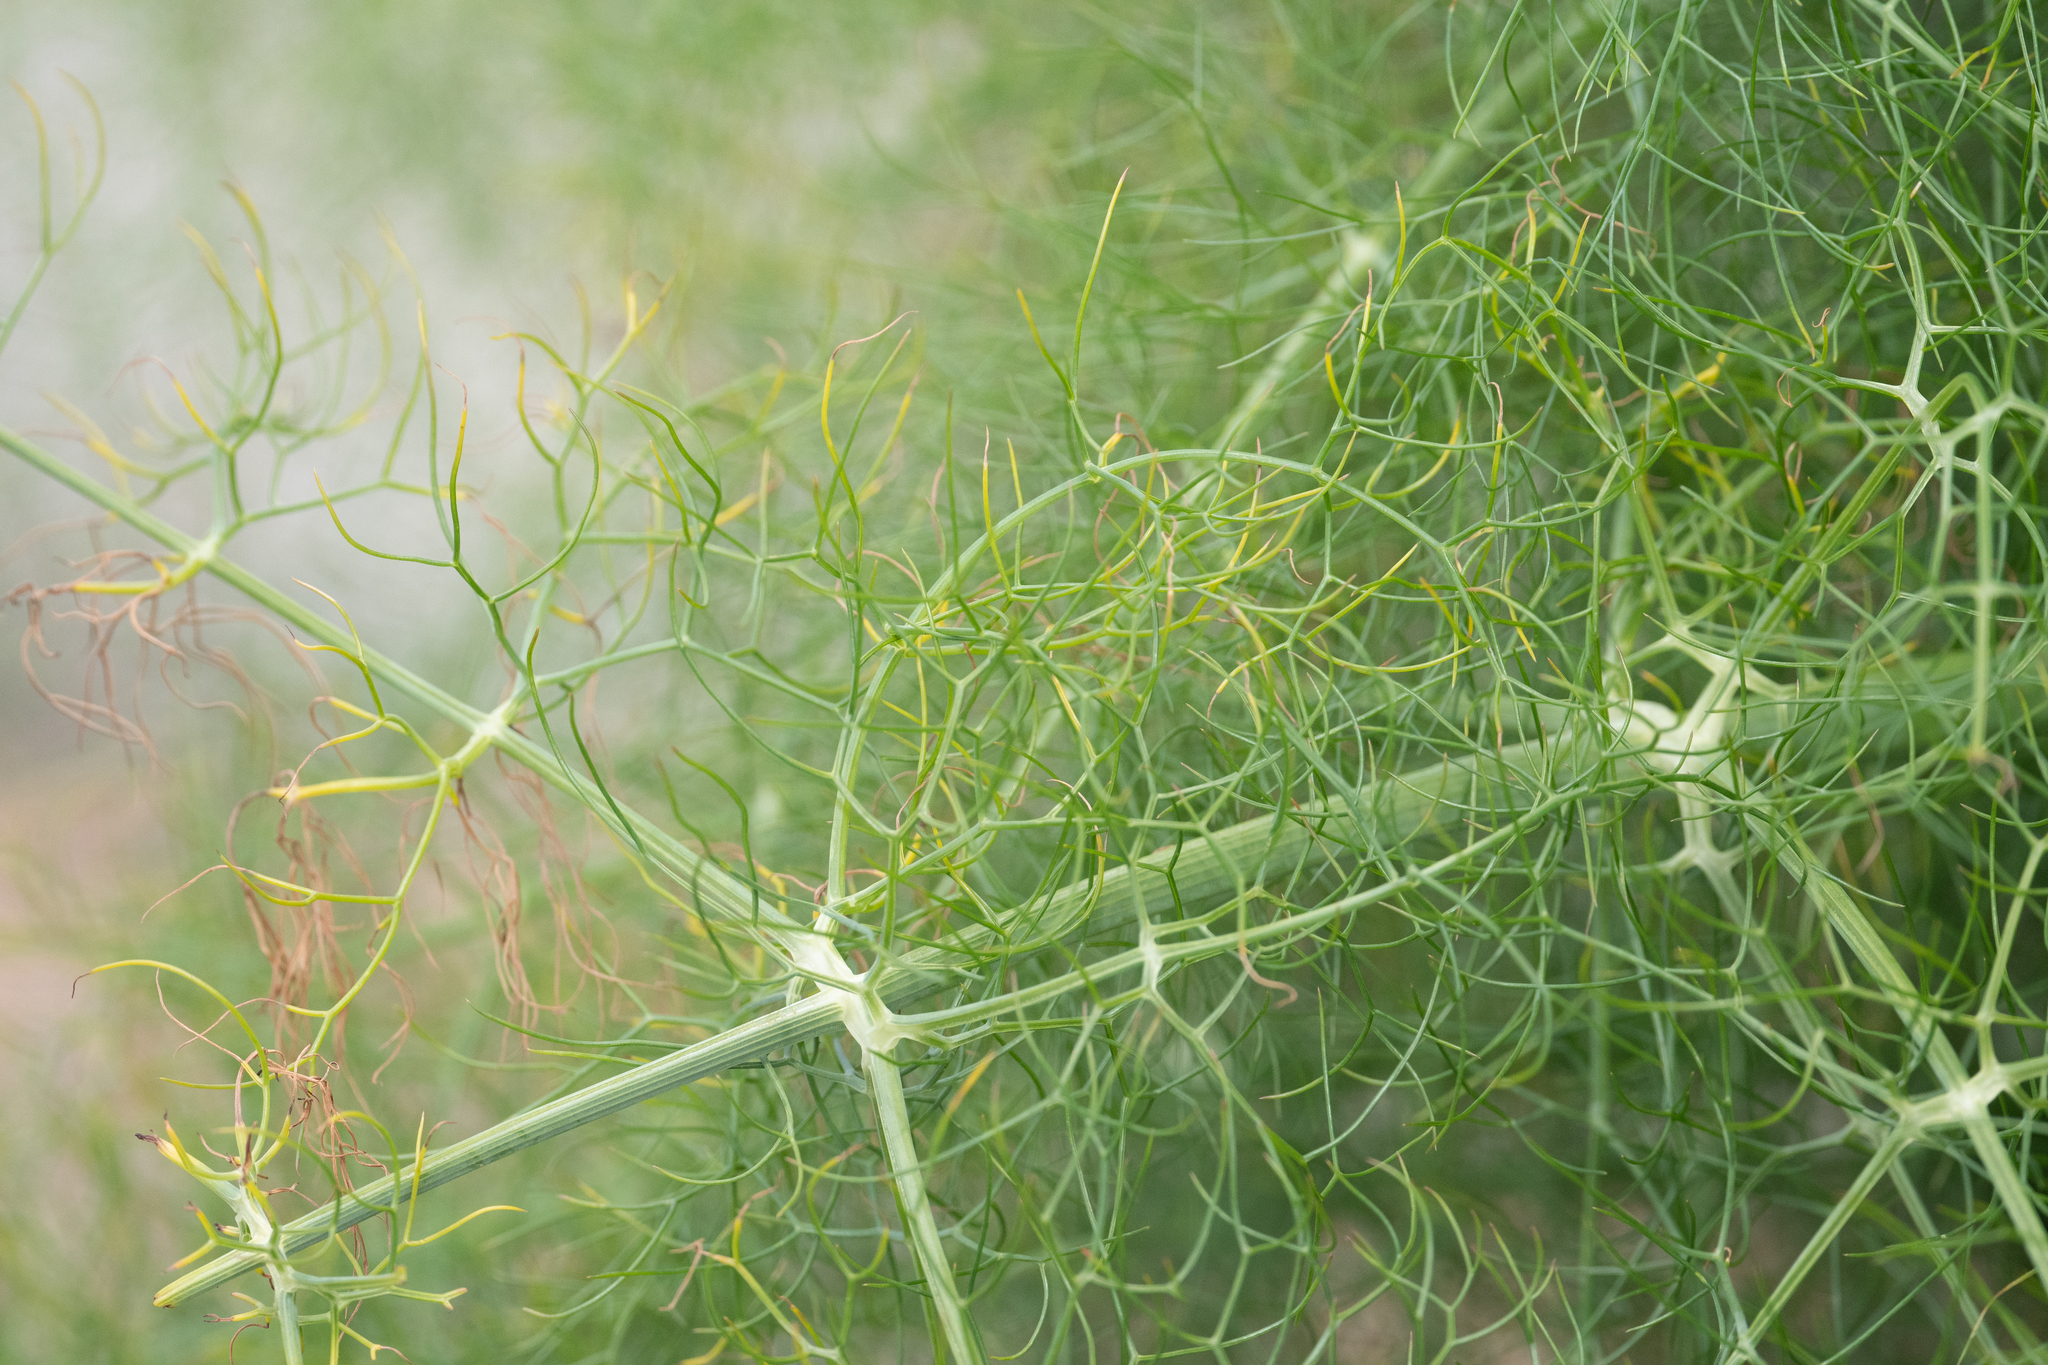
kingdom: Plantae
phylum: Tracheophyta
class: Magnoliopsida
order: Apiales
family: Apiaceae
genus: Foeniculum
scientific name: Foeniculum vulgare
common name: Fennel
